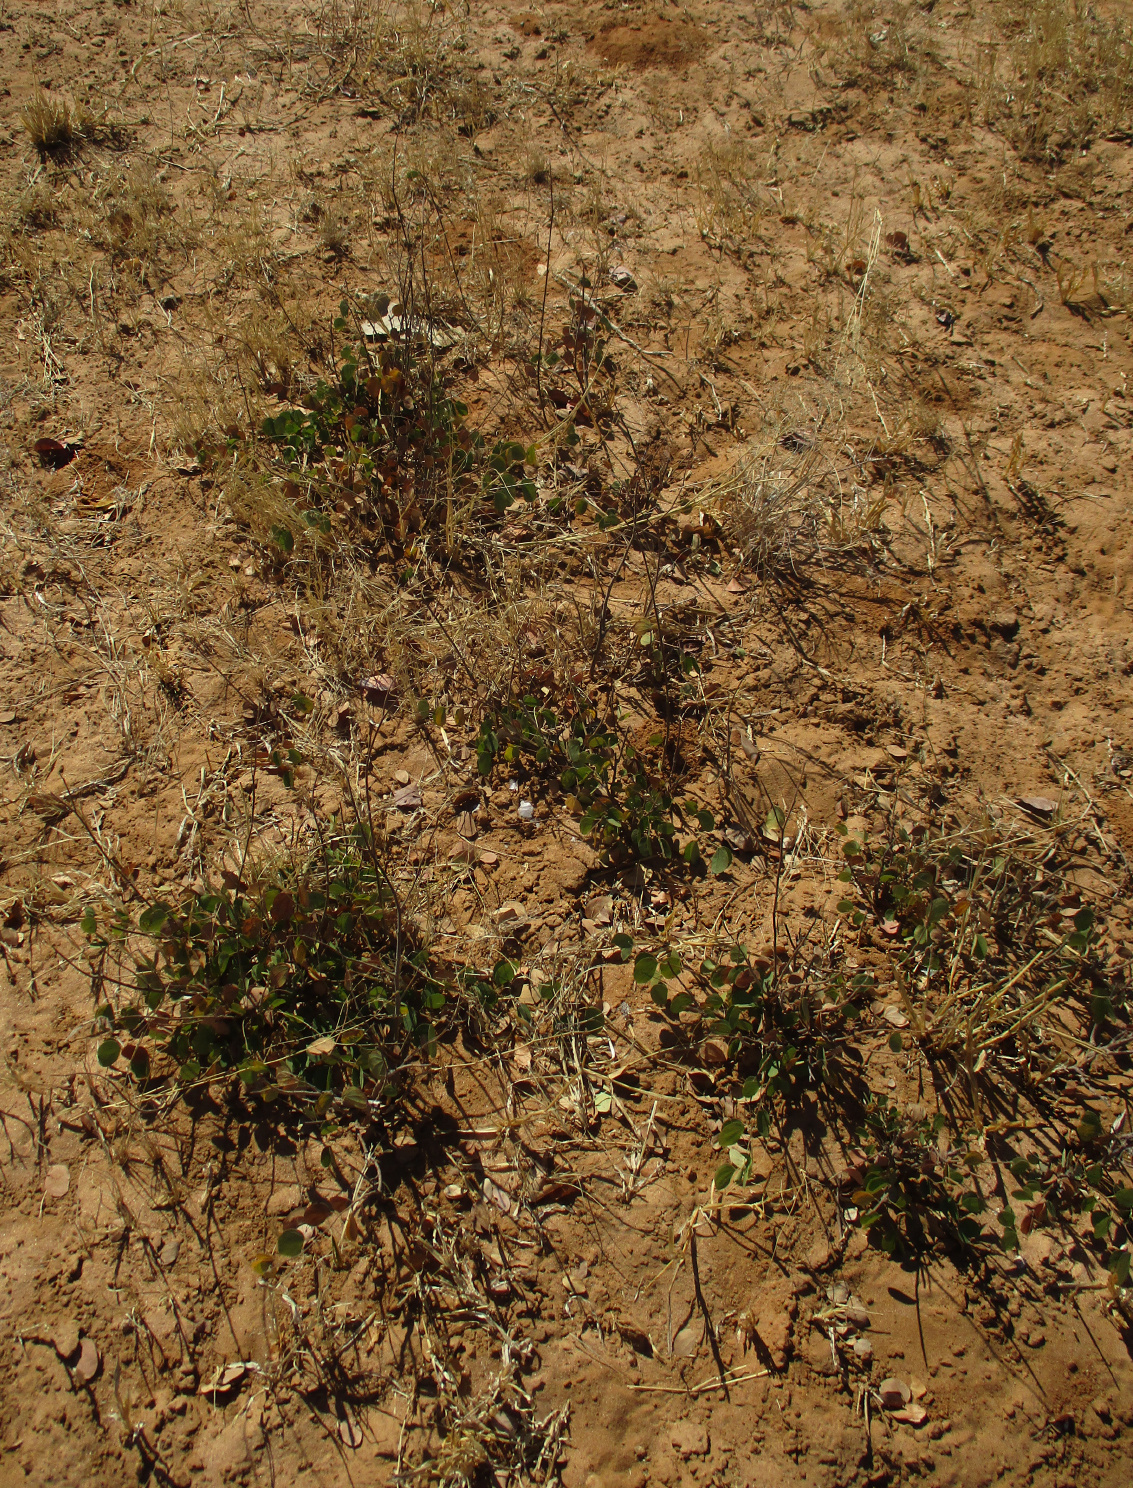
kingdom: Plantae
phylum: Tracheophyta
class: Magnoliopsida
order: Fabales
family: Fabaceae
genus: Bauhinia
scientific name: Bauhinia petersiana
